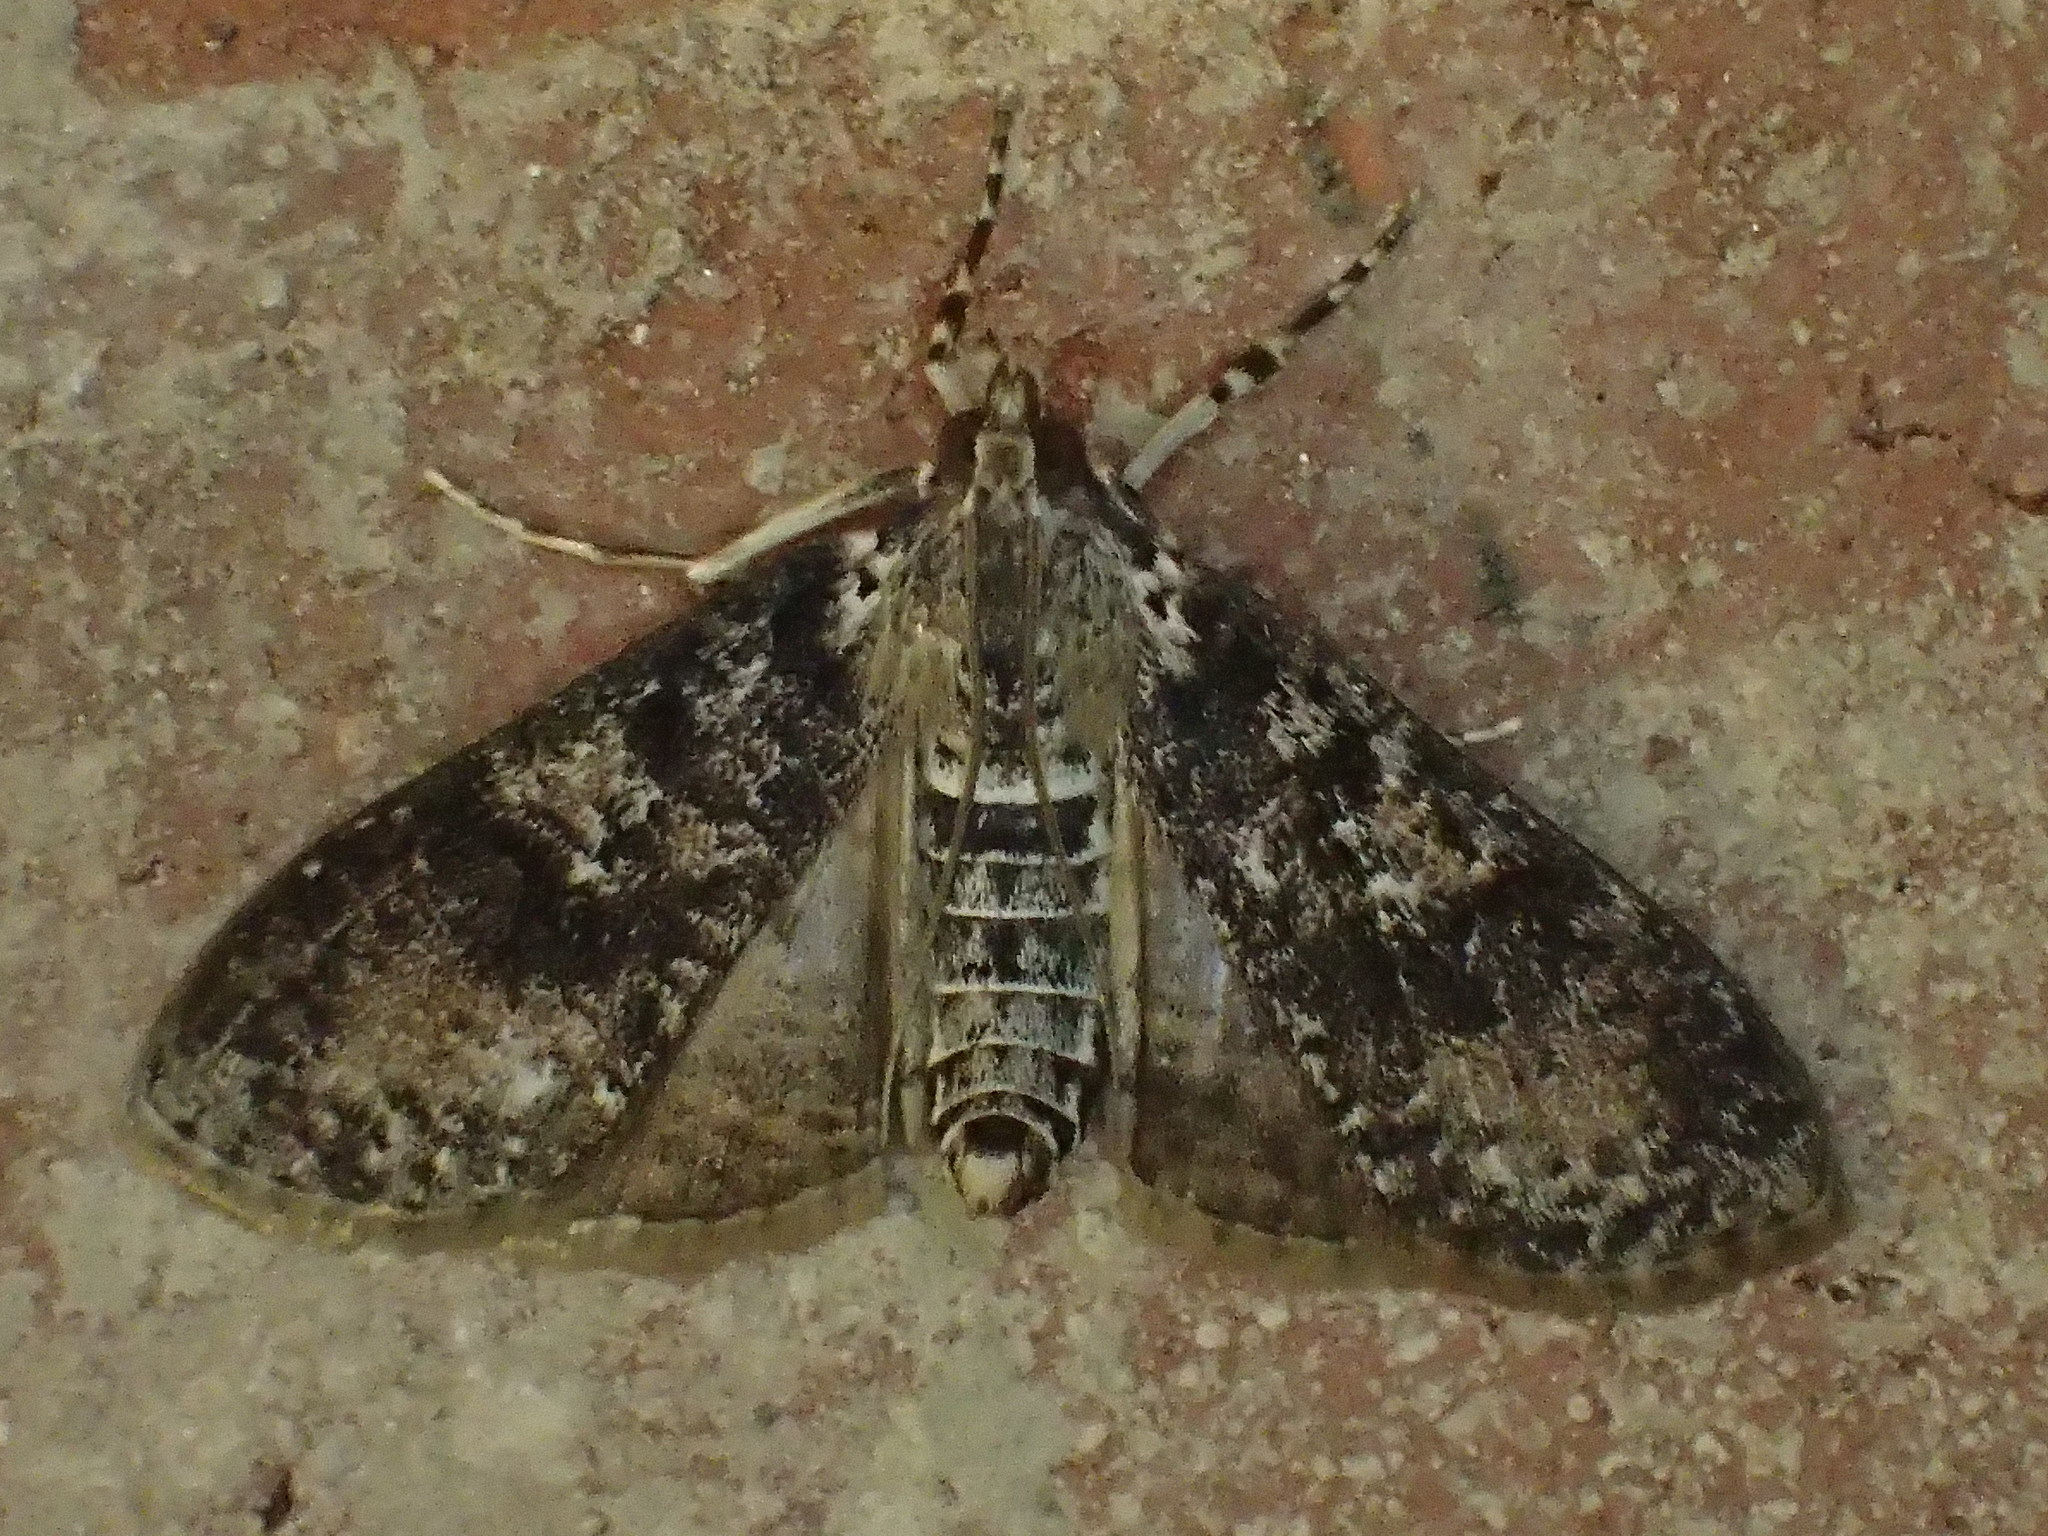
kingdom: Animalia
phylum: Arthropoda
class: Insecta
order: Lepidoptera
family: Crambidae
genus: Palpita
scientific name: Palpita magniferalis
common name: Splendid palpita moth
